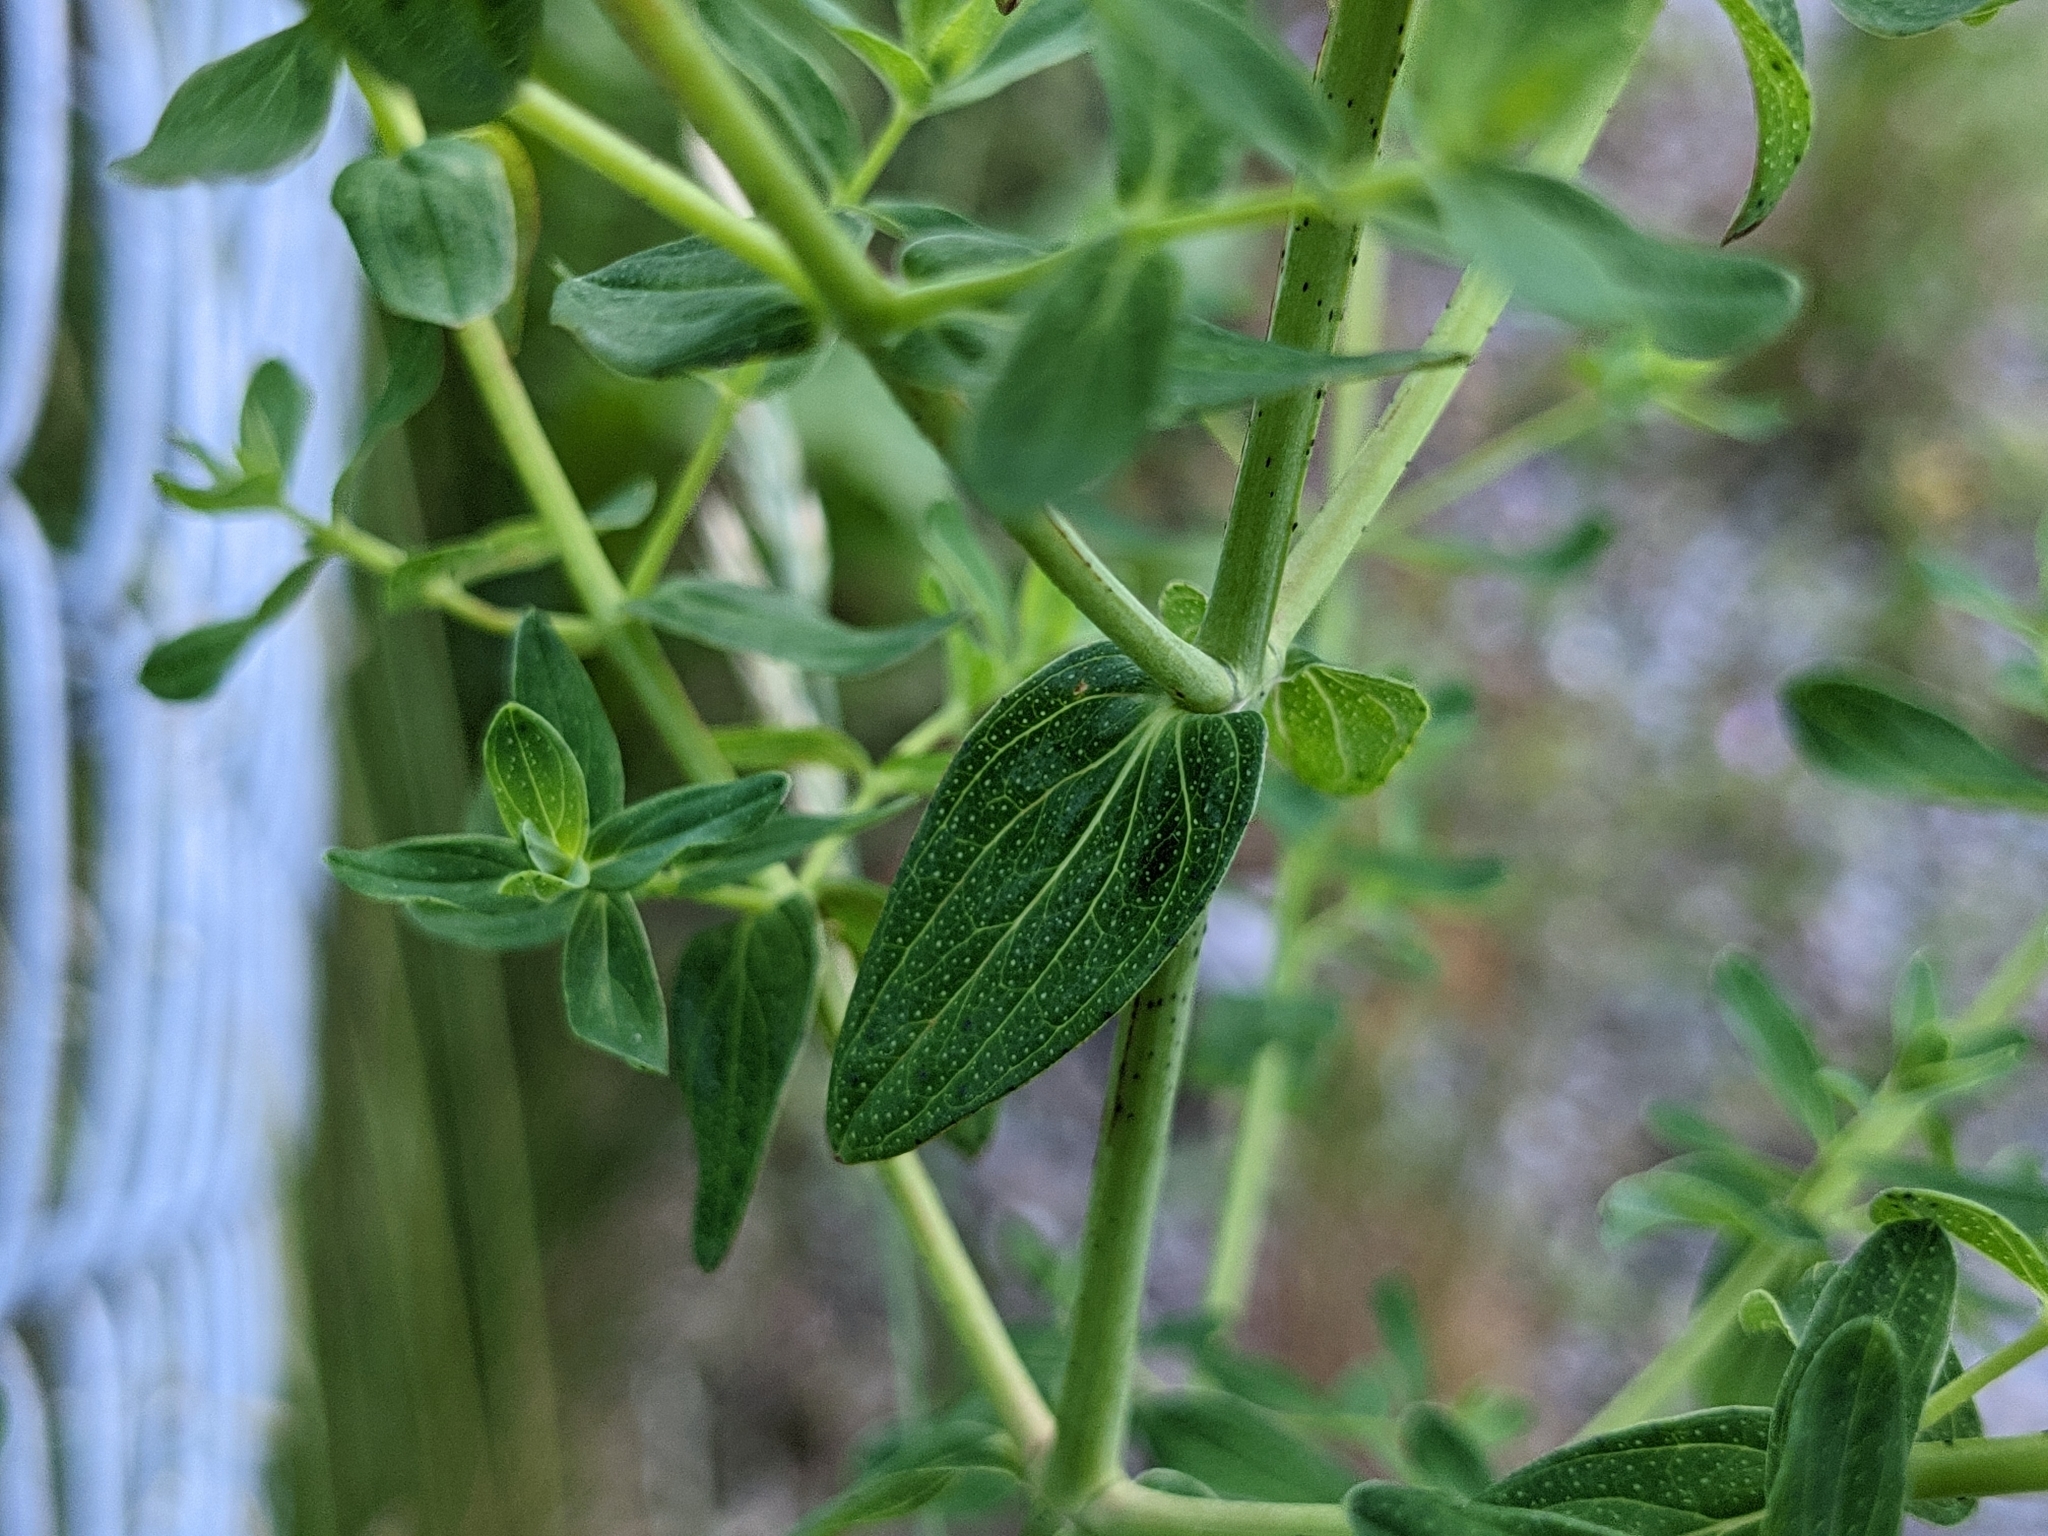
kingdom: Plantae
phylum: Tracheophyta
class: Magnoliopsida
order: Malpighiales
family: Hypericaceae
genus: Hypericum
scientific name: Hypericum perforatum
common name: Common st. johnswort
